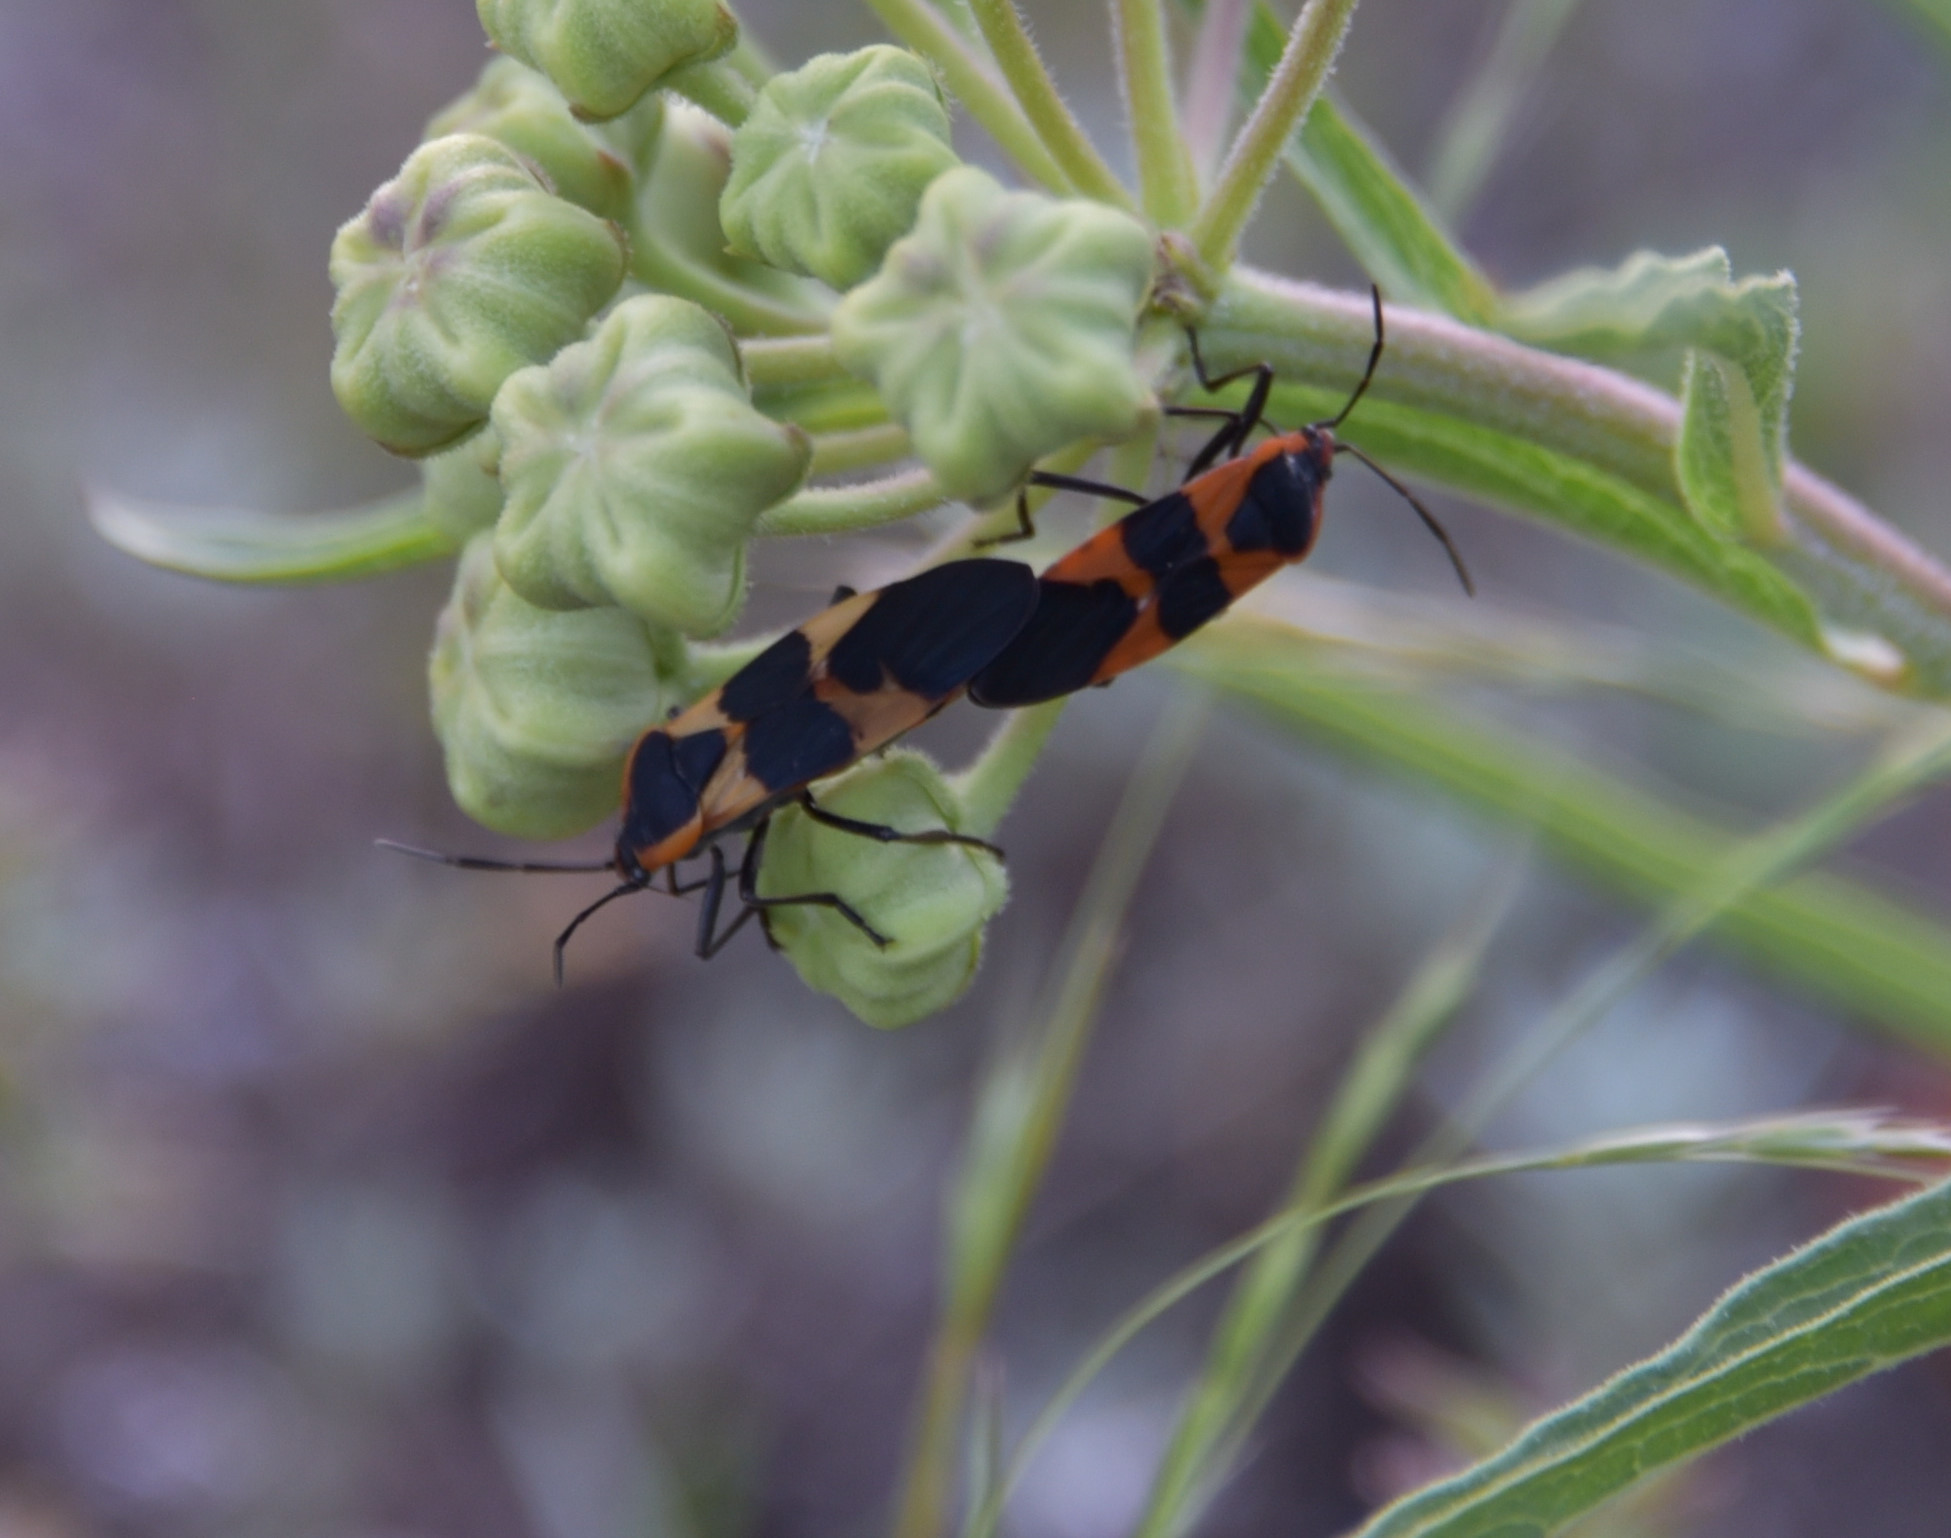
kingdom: Animalia
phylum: Arthropoda
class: Insecta
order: Hemiptera
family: Lygaeidae
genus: Oncopeltus
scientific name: Oncopeltus fasciatus
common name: Large milkweed bug
